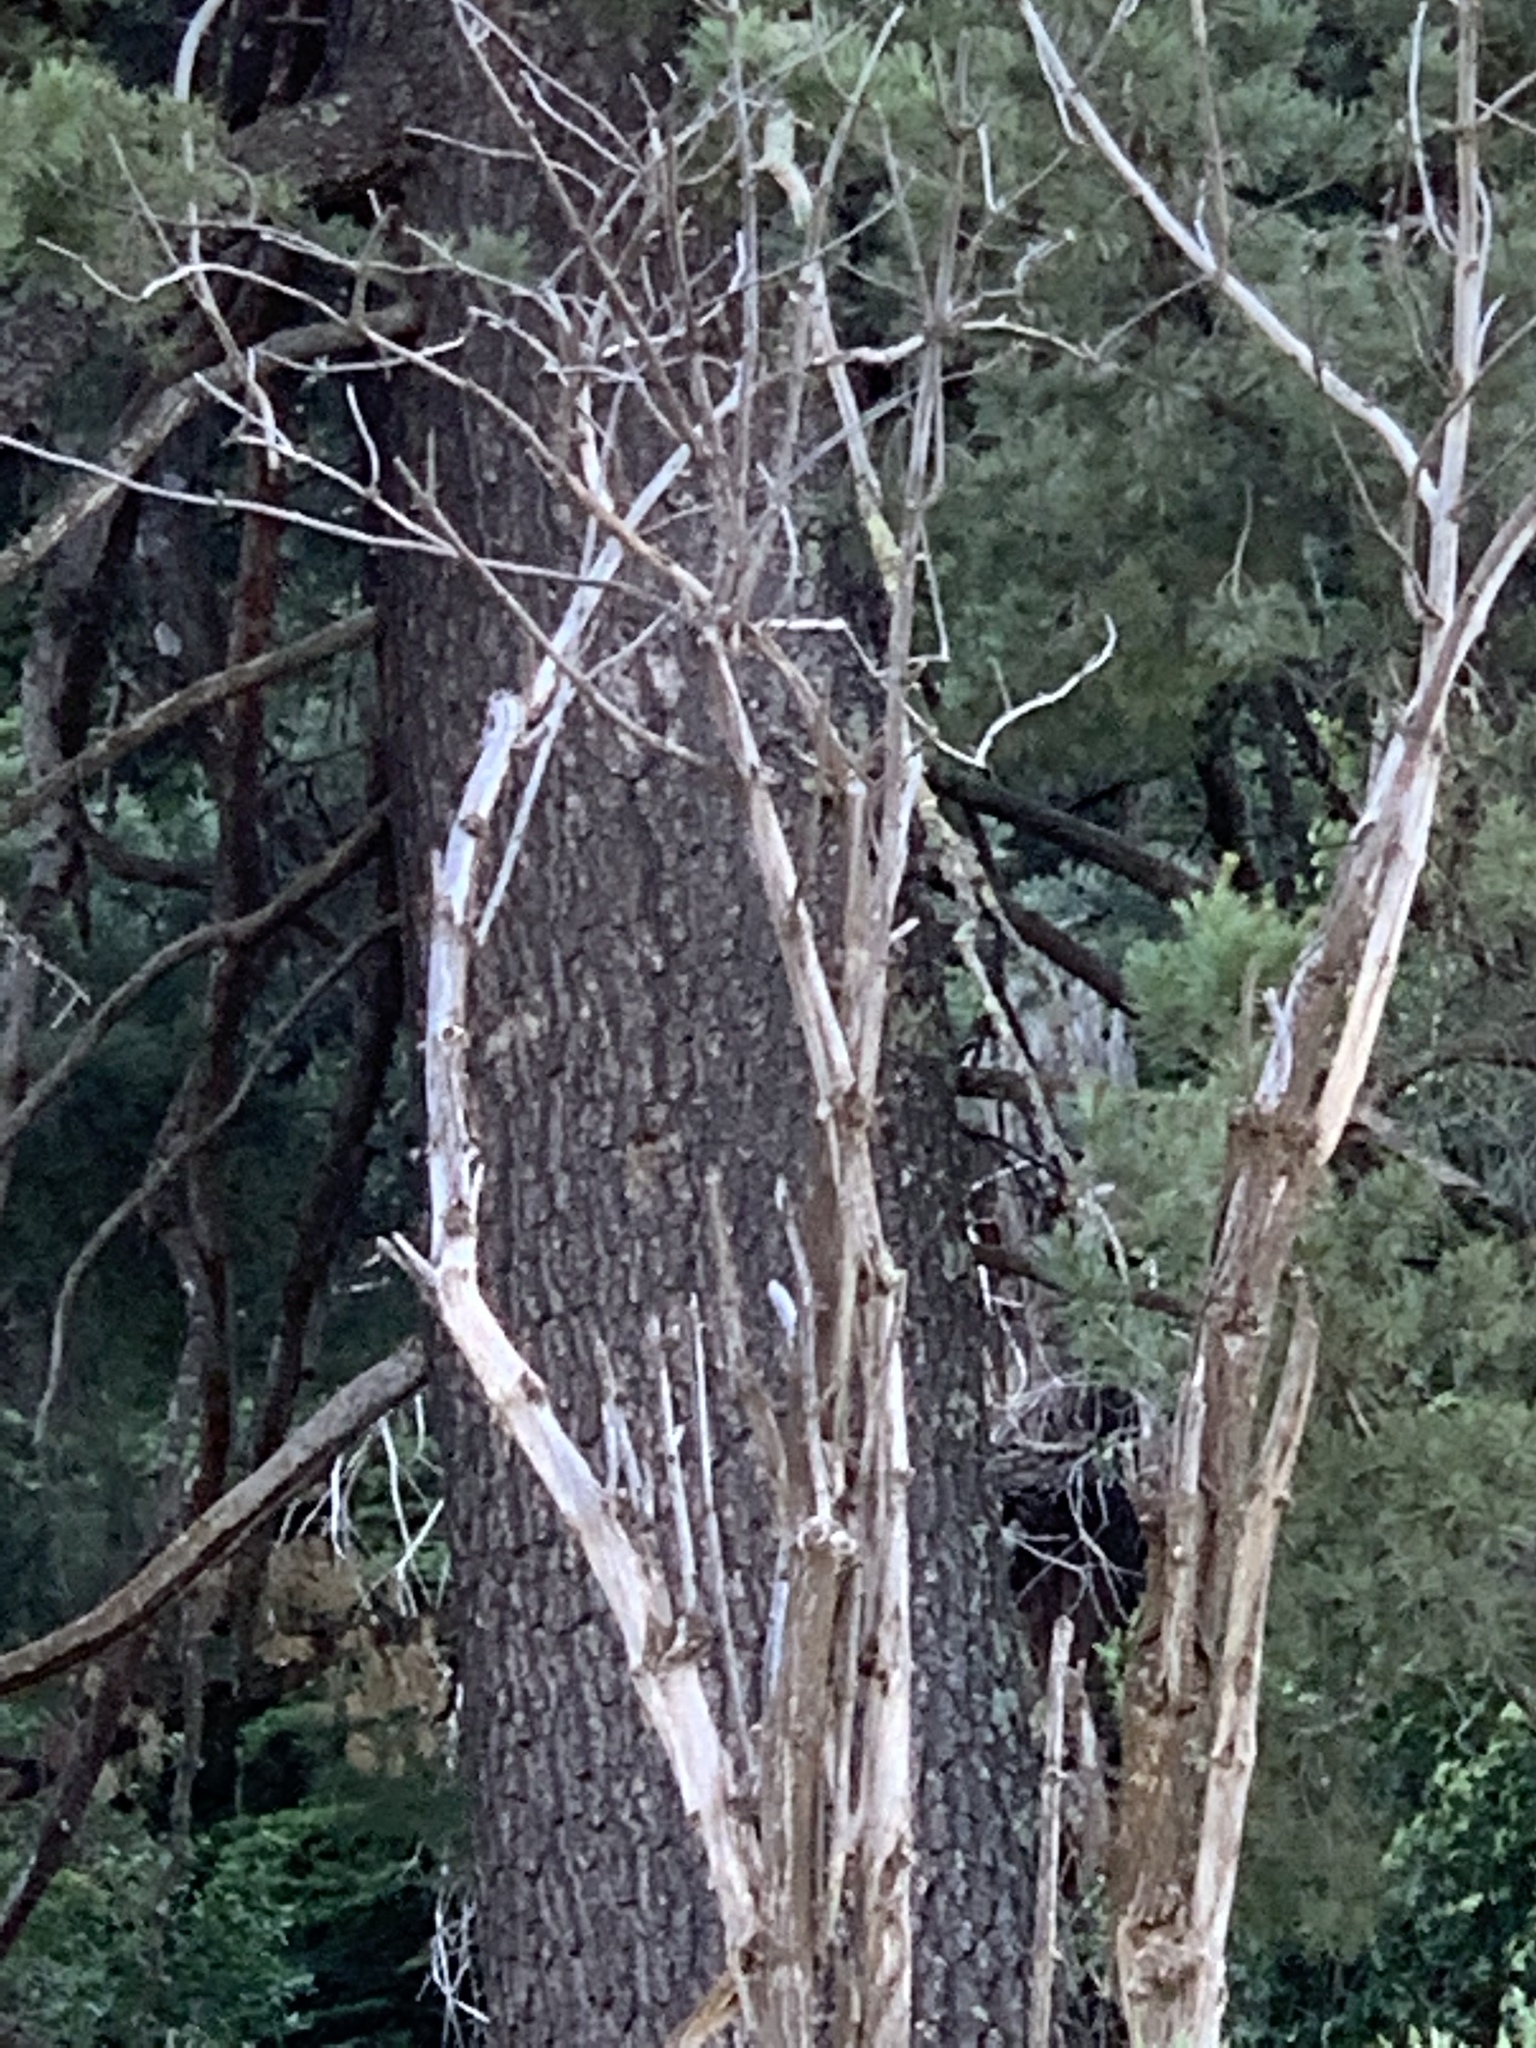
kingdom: Plantae
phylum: Tracheophyta
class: Pinopsida
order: Pinales
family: Pinaceae
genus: Pinus
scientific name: Pinus strobiformis
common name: Southwestern white pine
